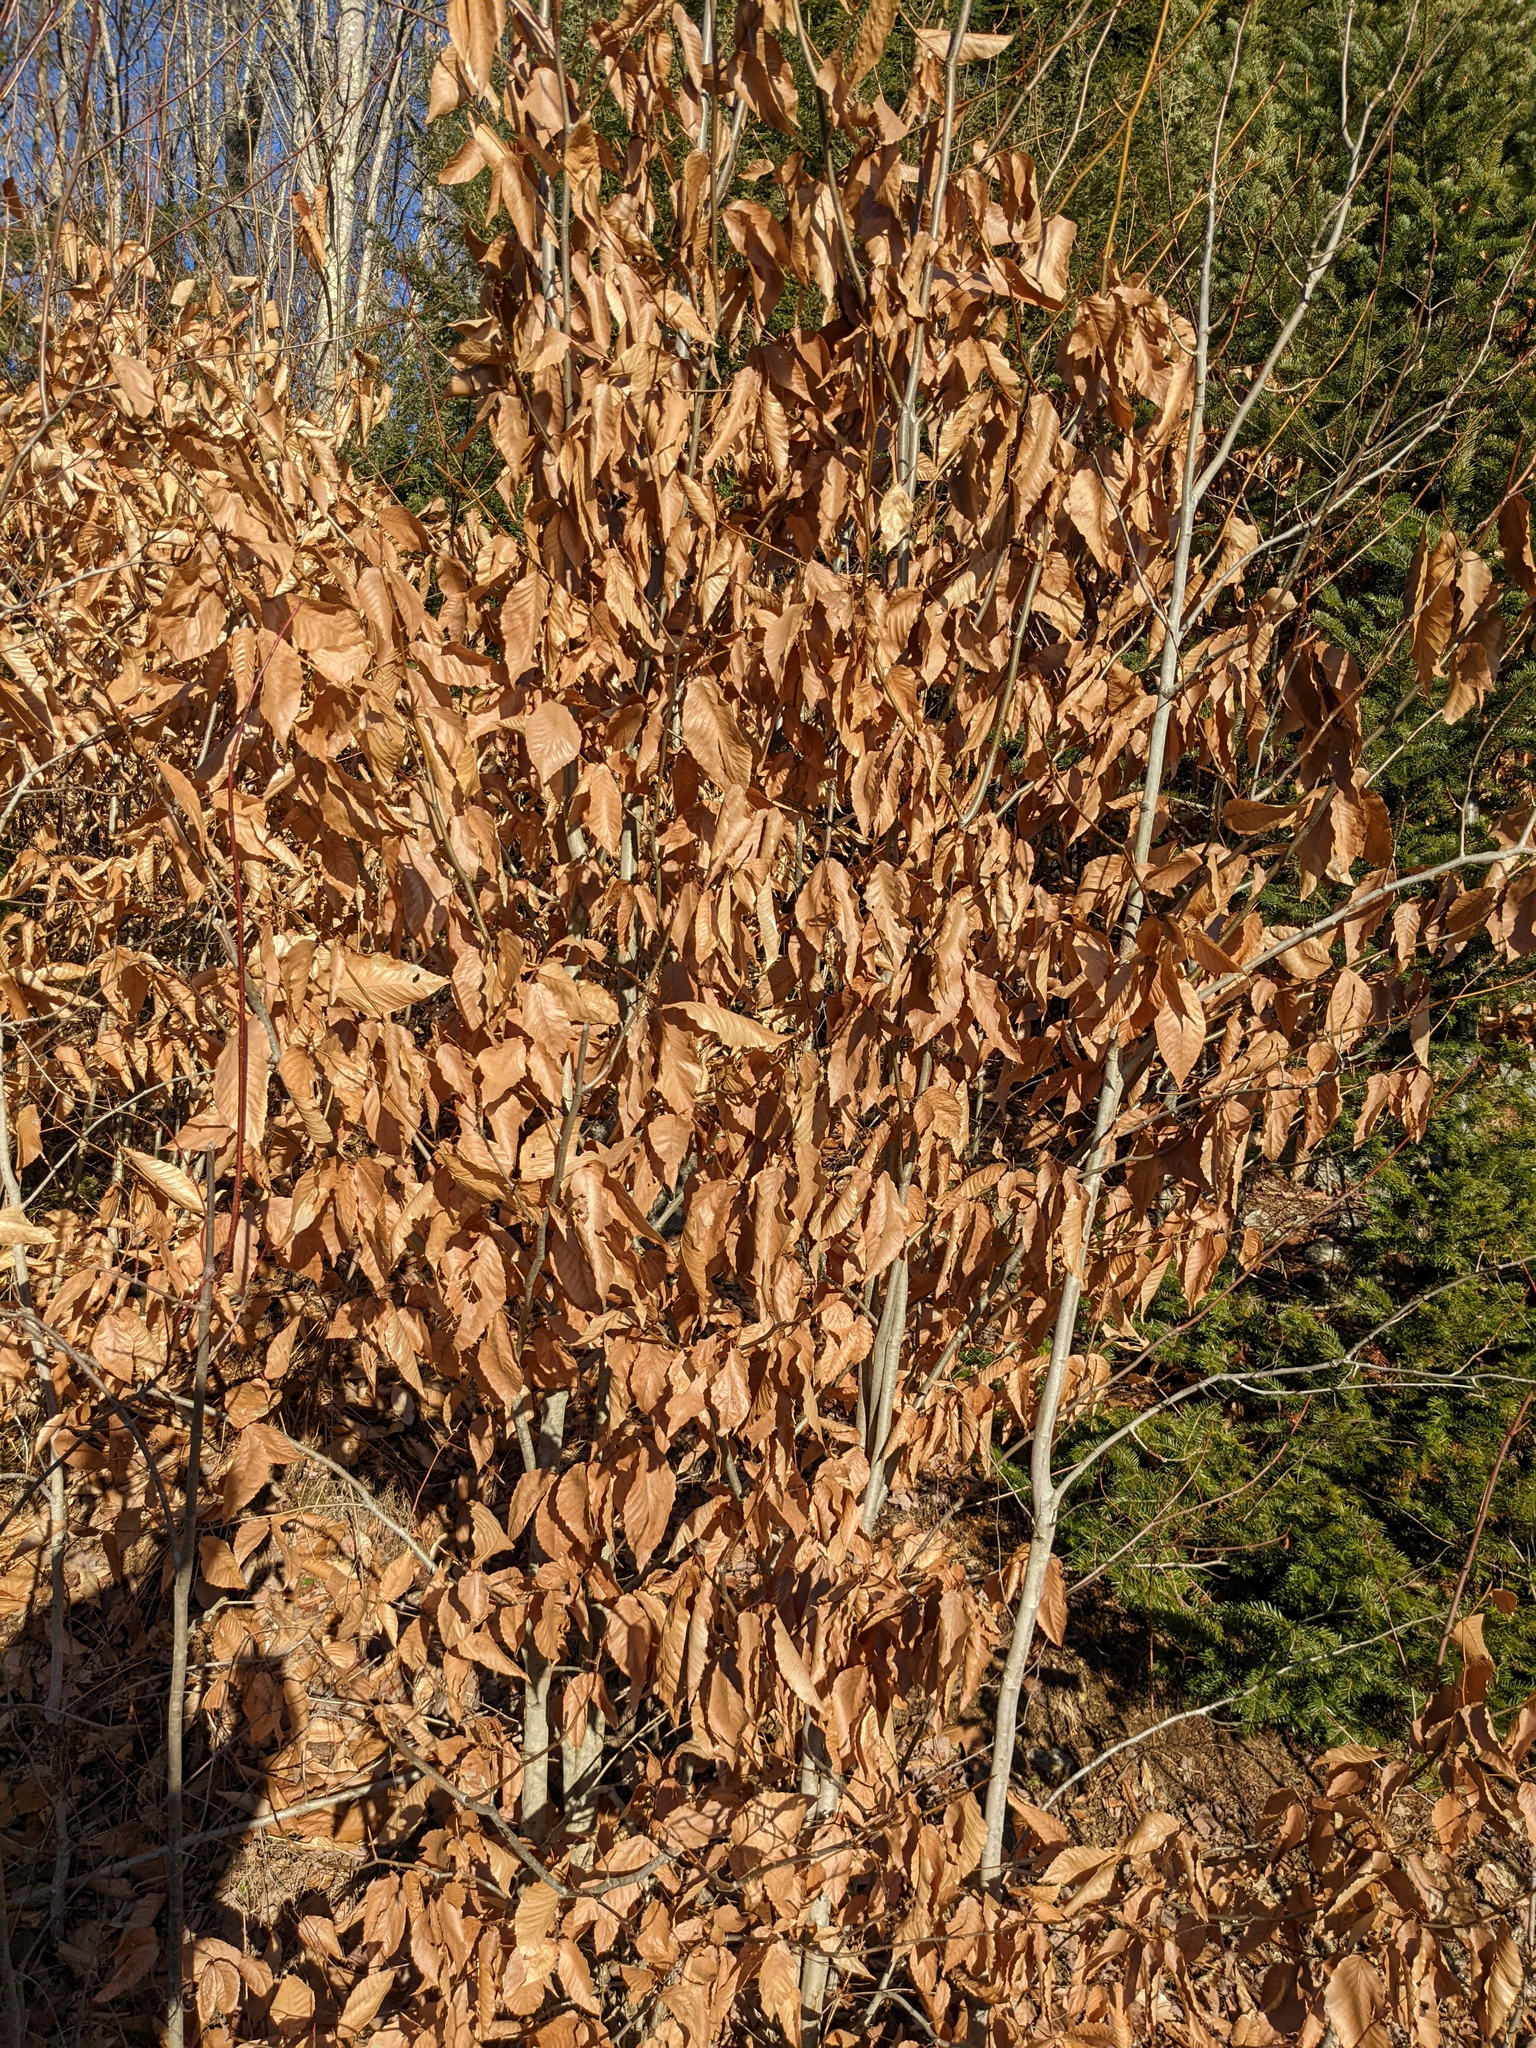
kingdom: Plantae
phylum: Tracheophyta
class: Magnoliopsida
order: Fagales
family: Fagaceae
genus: Fagus
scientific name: Fagus grandifolia
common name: American beech
